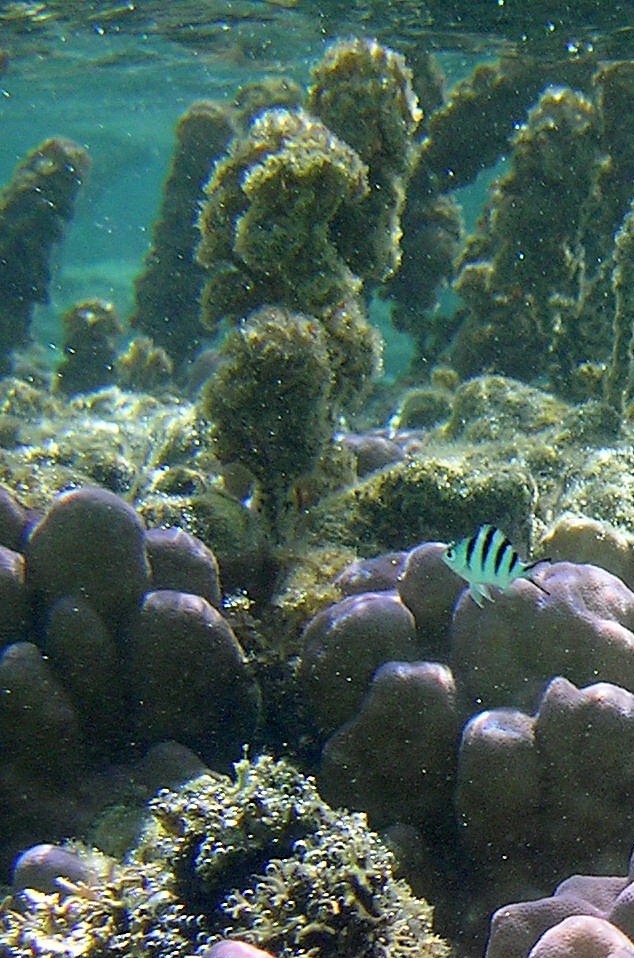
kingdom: Animalia
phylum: Chordata
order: Perciformes
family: Pomacentridae
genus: Abudefduf
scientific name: Abudefduf sexfasciatus
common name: Scissortail sergeant
